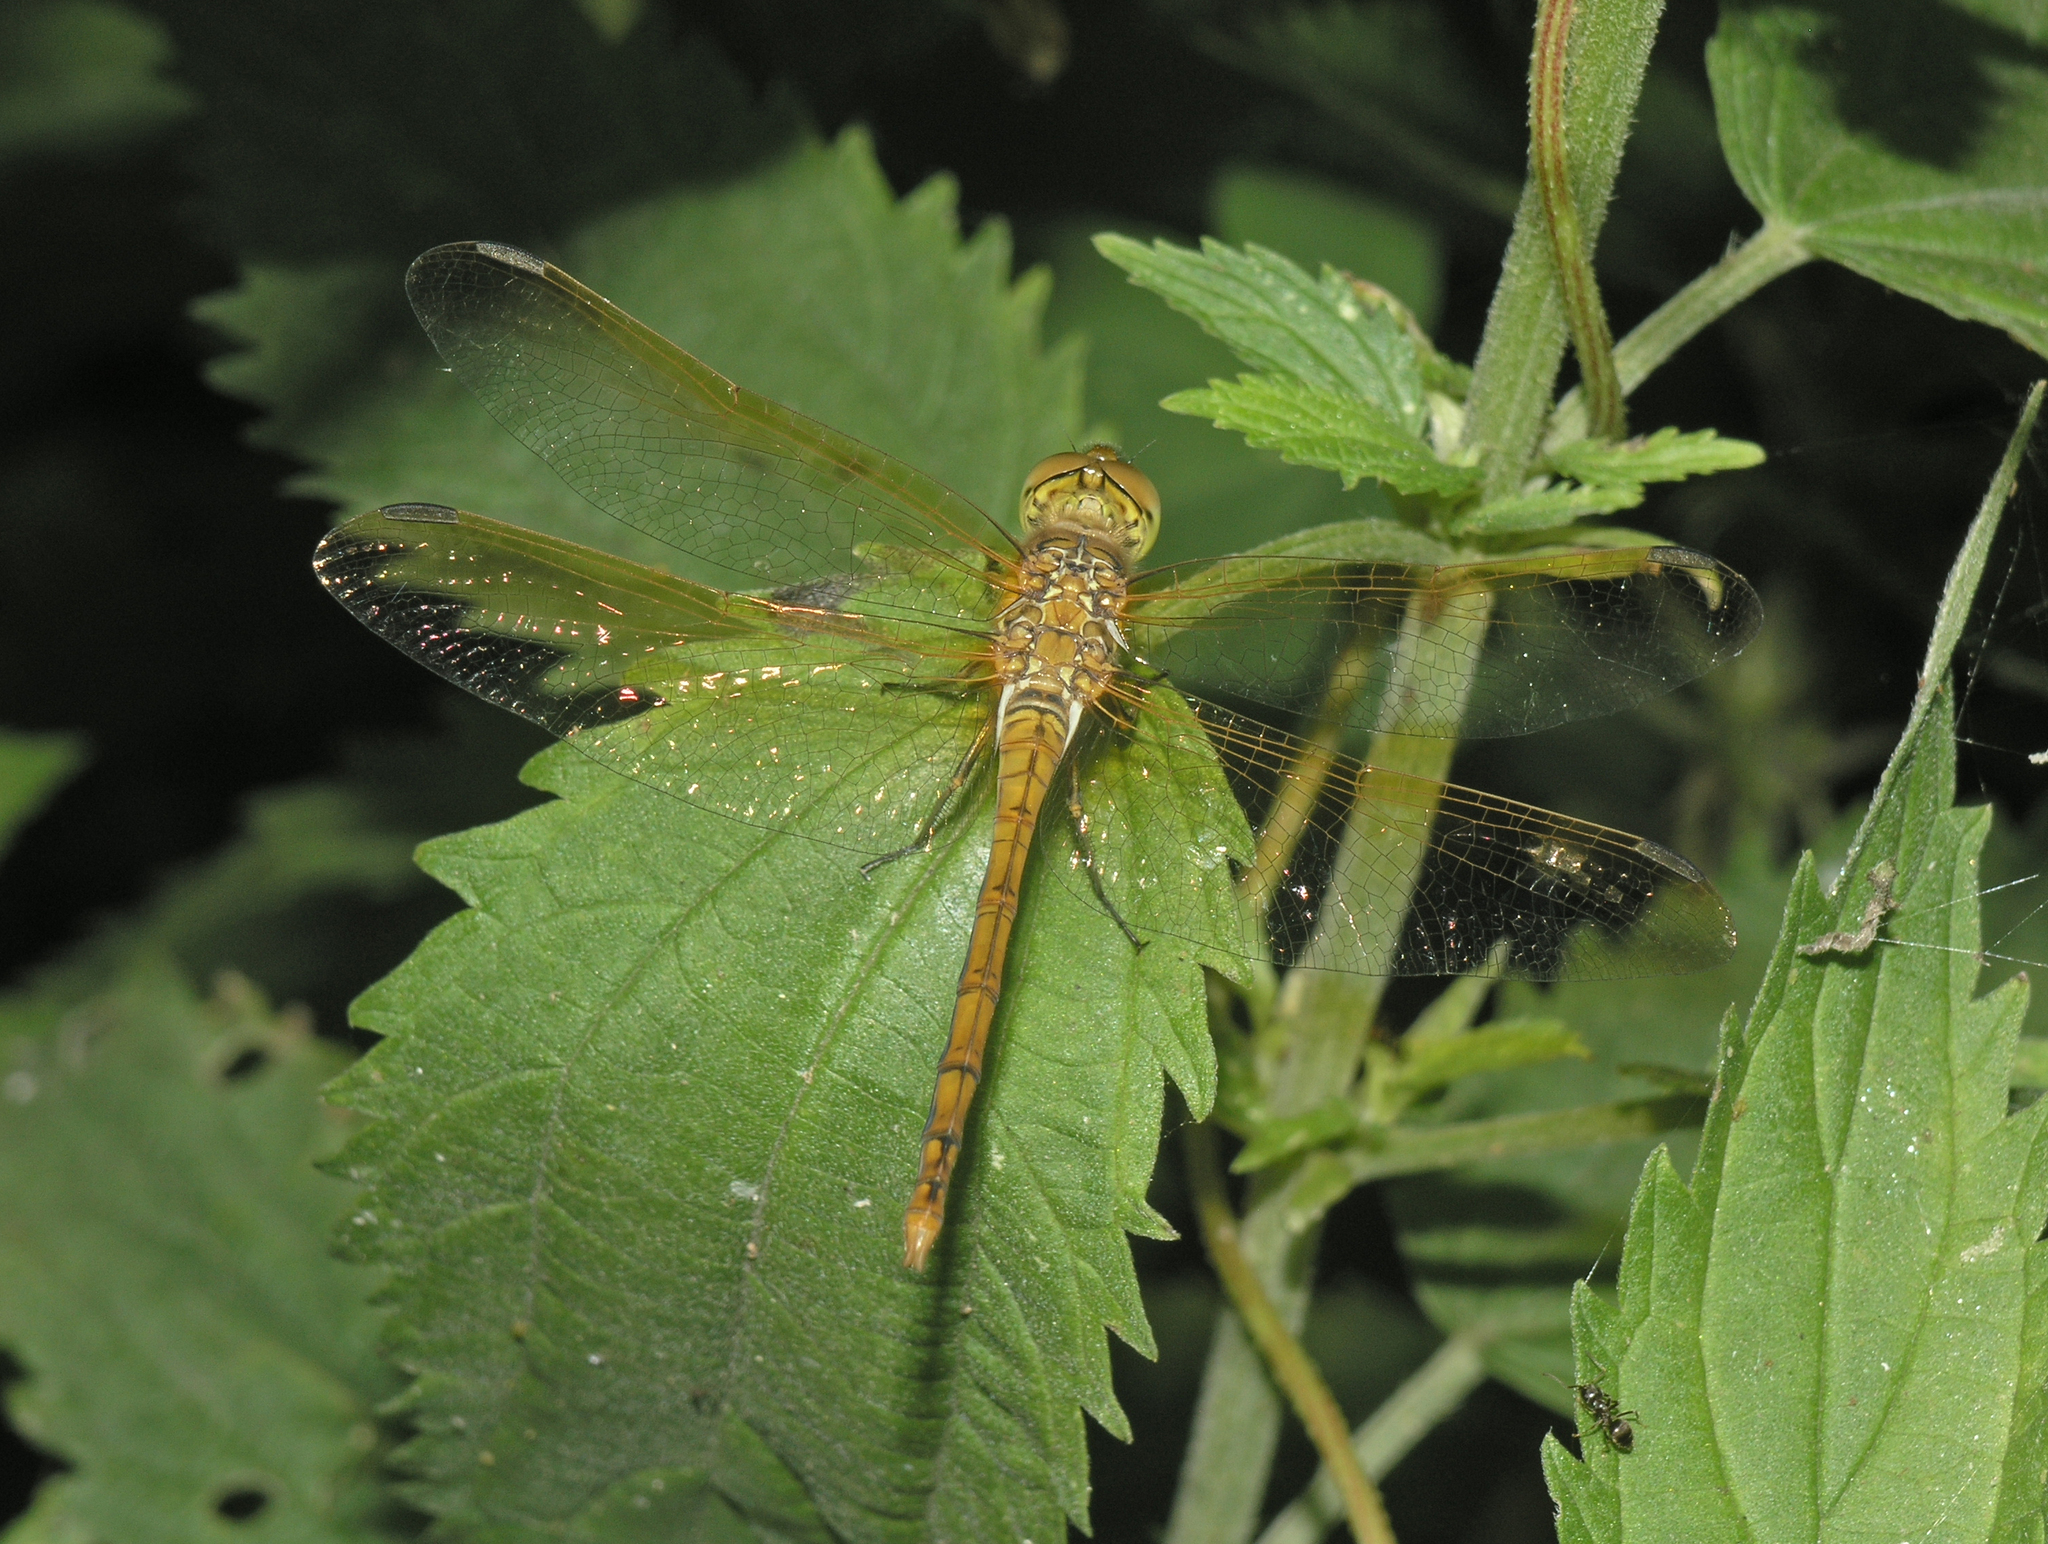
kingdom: Animalia
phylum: Arthropoda
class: Insecta
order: Odonata
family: Libellulidae
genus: Sympetrum
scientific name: Sympetrum striolatum
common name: Common darter
